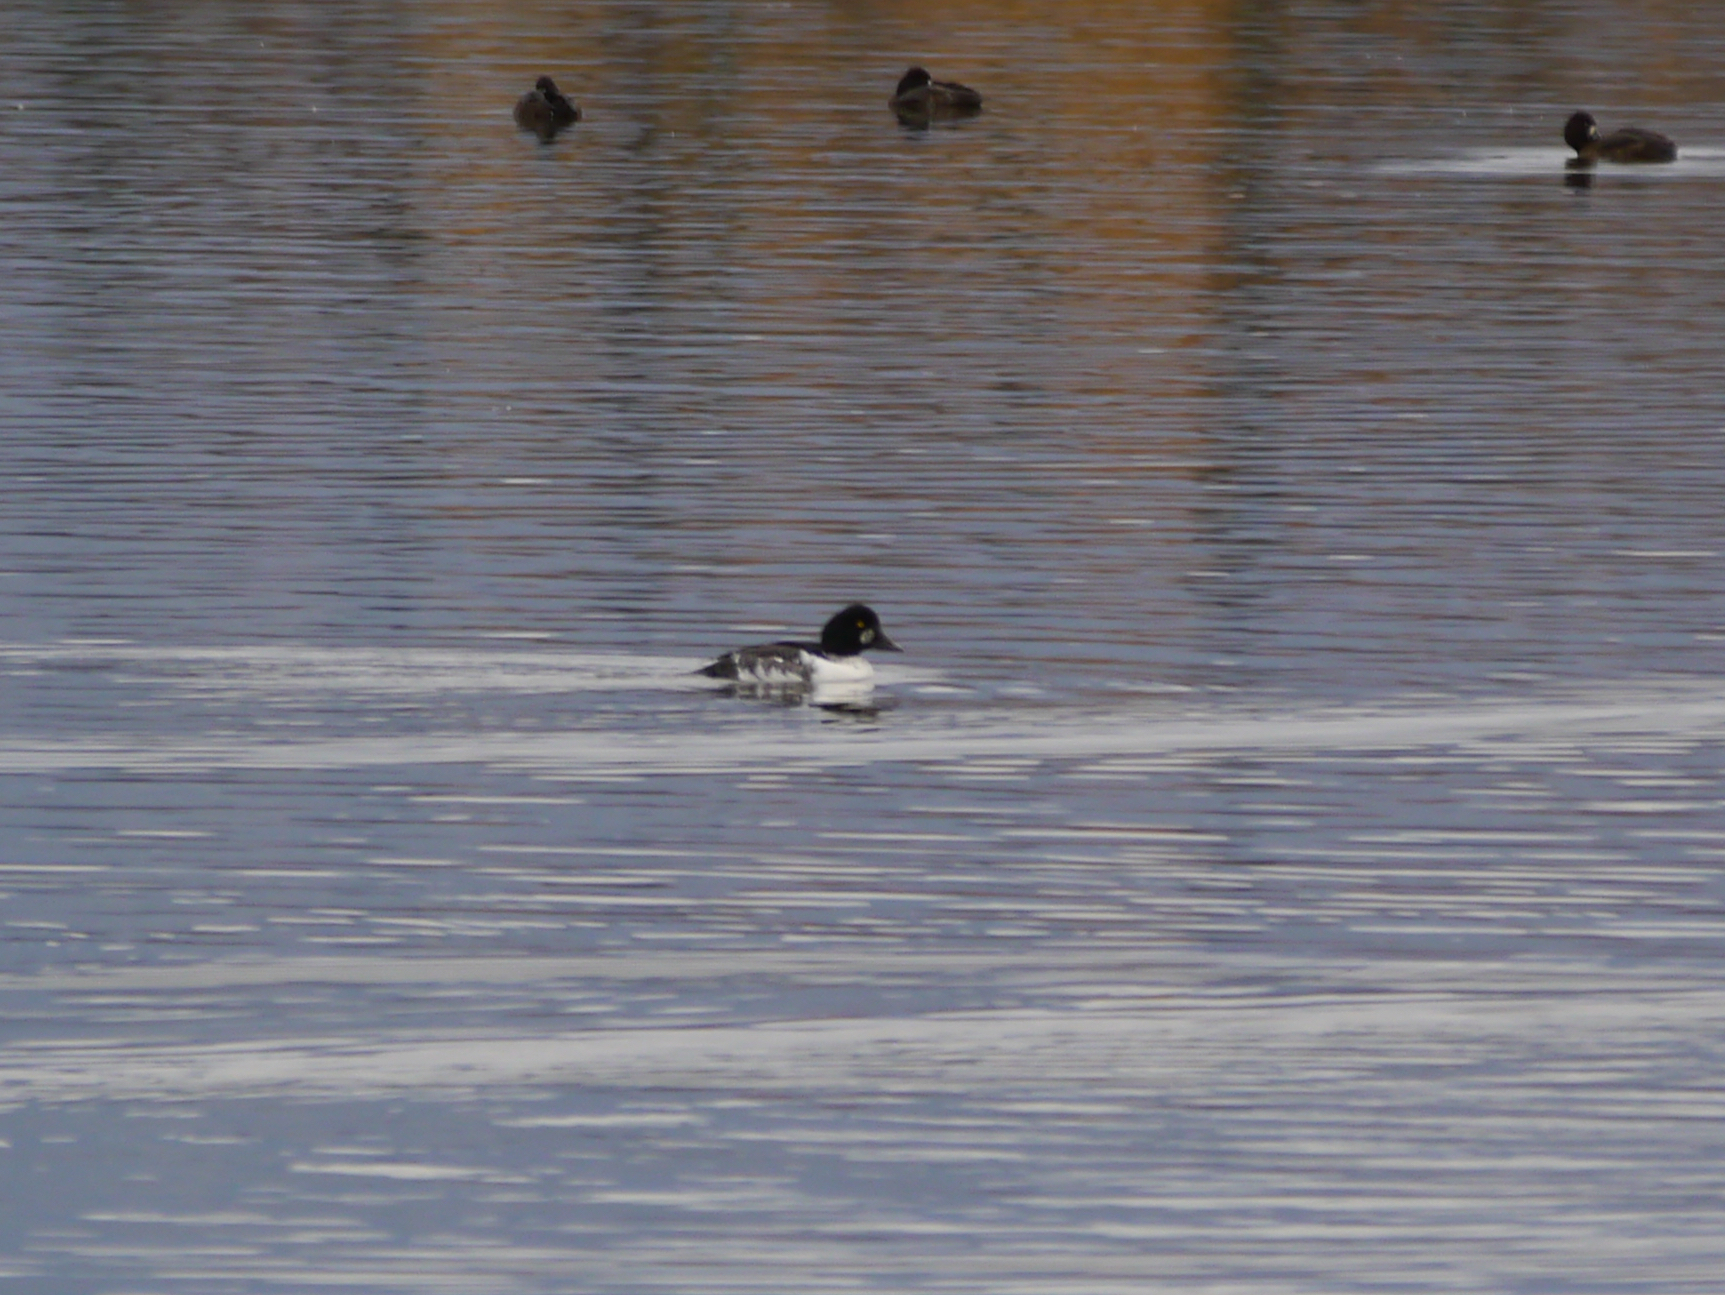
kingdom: Animalia
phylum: Chordata
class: Aves
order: Anseriformes
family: Anatidae
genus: Bucephala
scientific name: Bucephala clangula
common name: Common goldeneye
